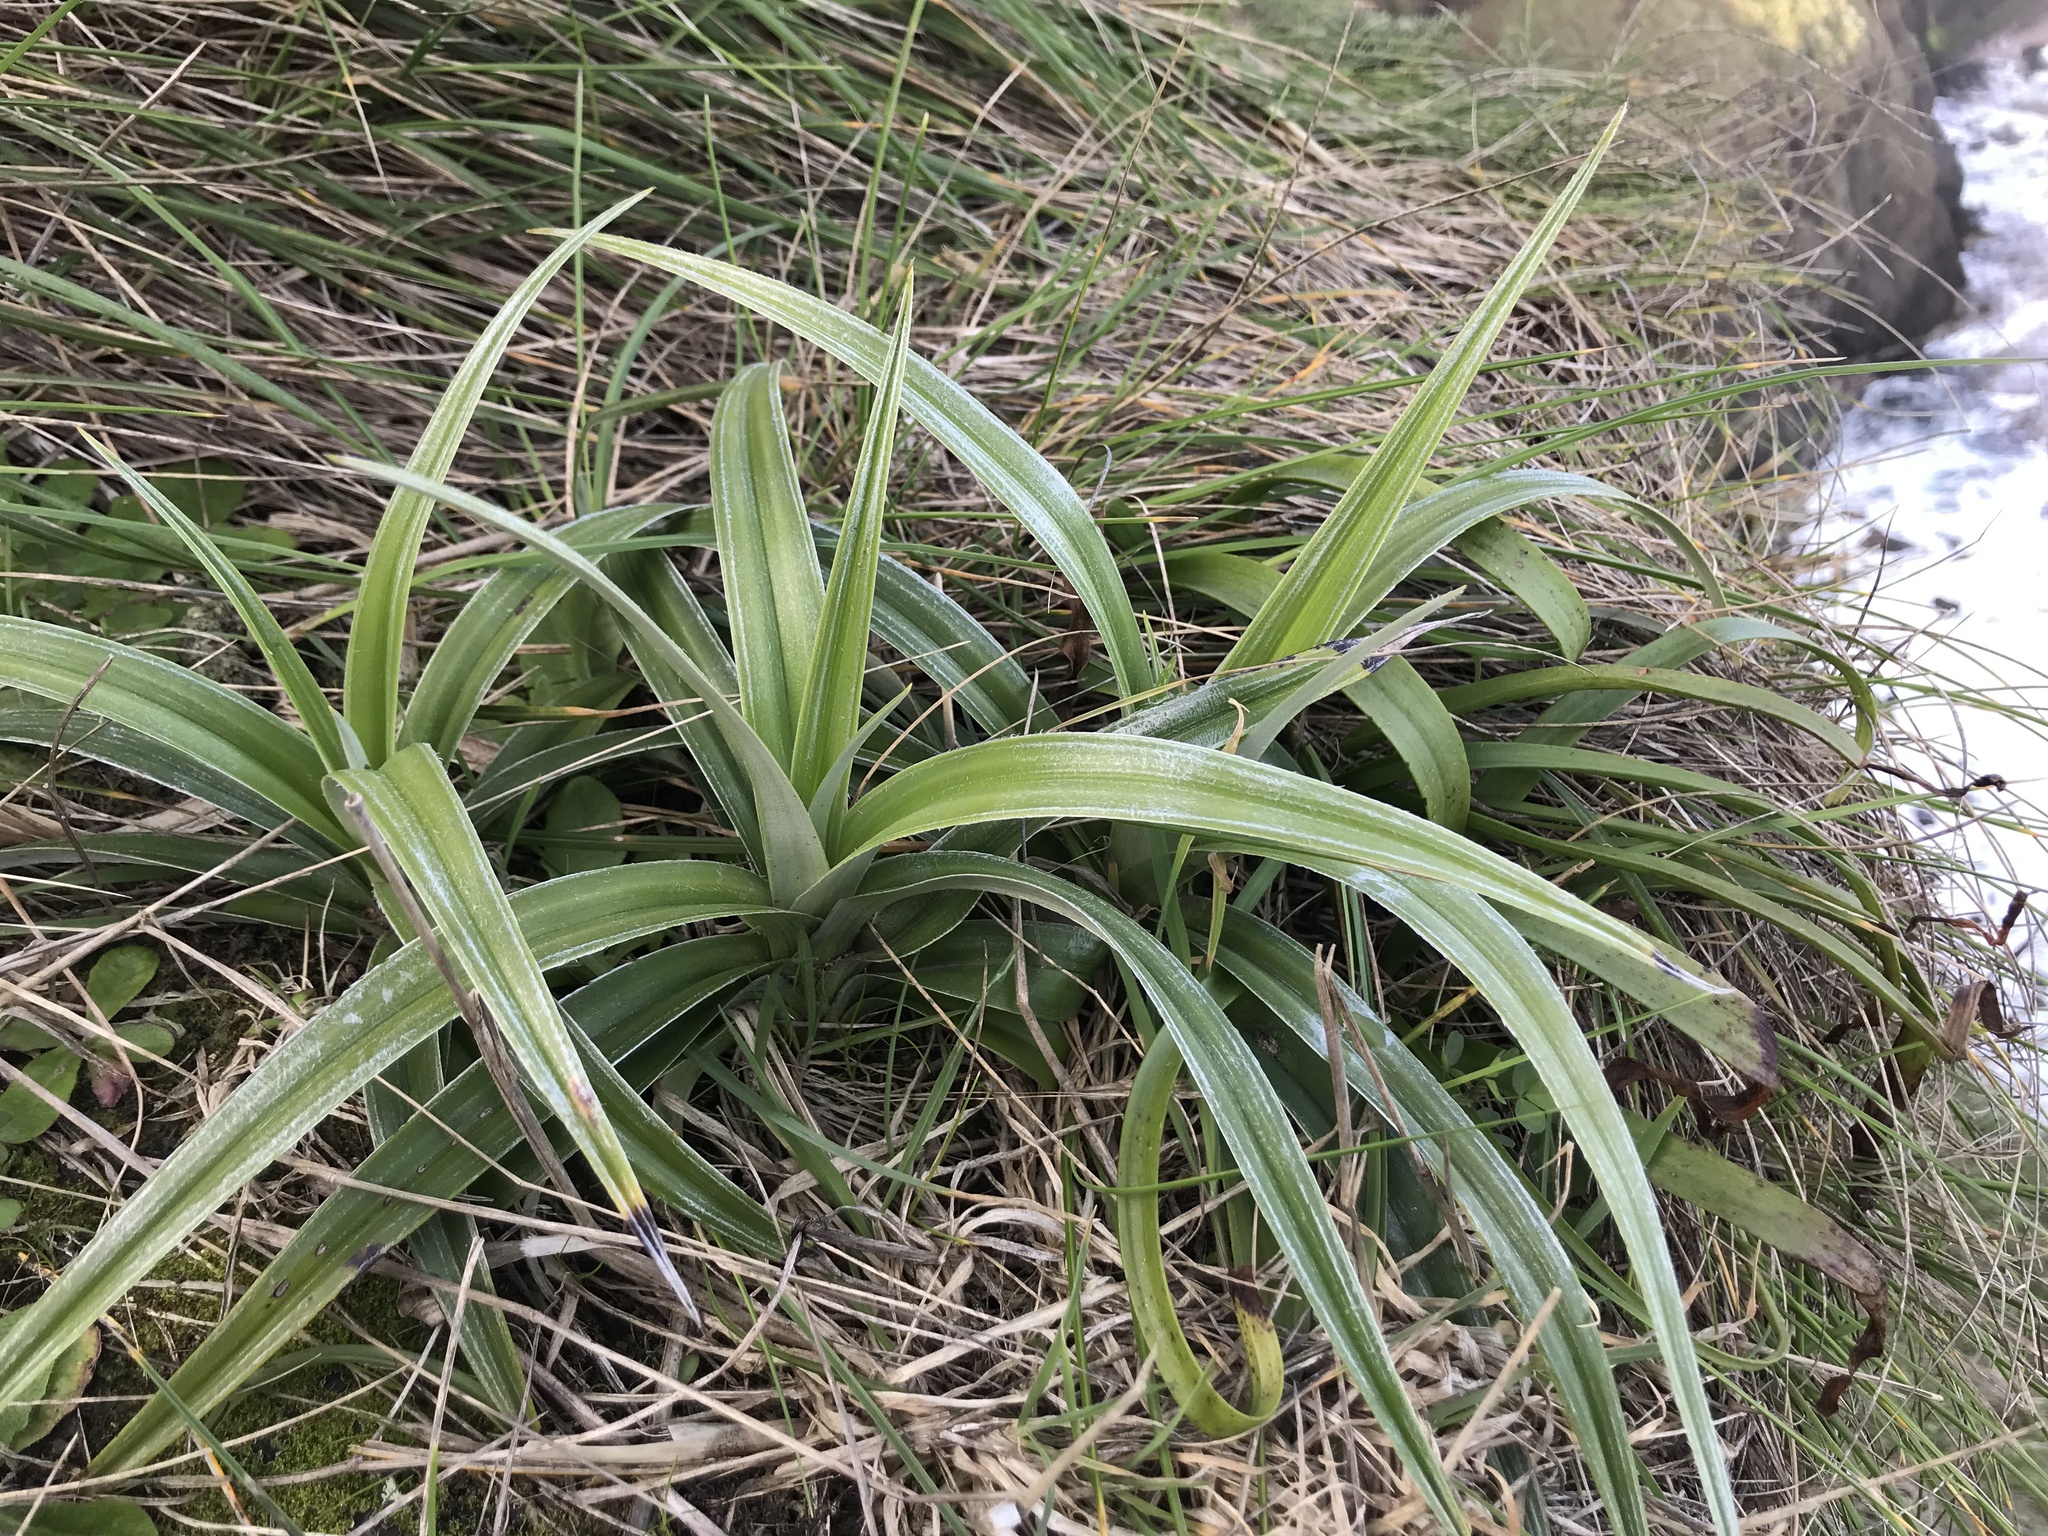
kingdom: Plantae
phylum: Tracheophyta
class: Liliopsida
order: Asparagales
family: Asteliaceae
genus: Astelia
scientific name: Astelia chathamica
